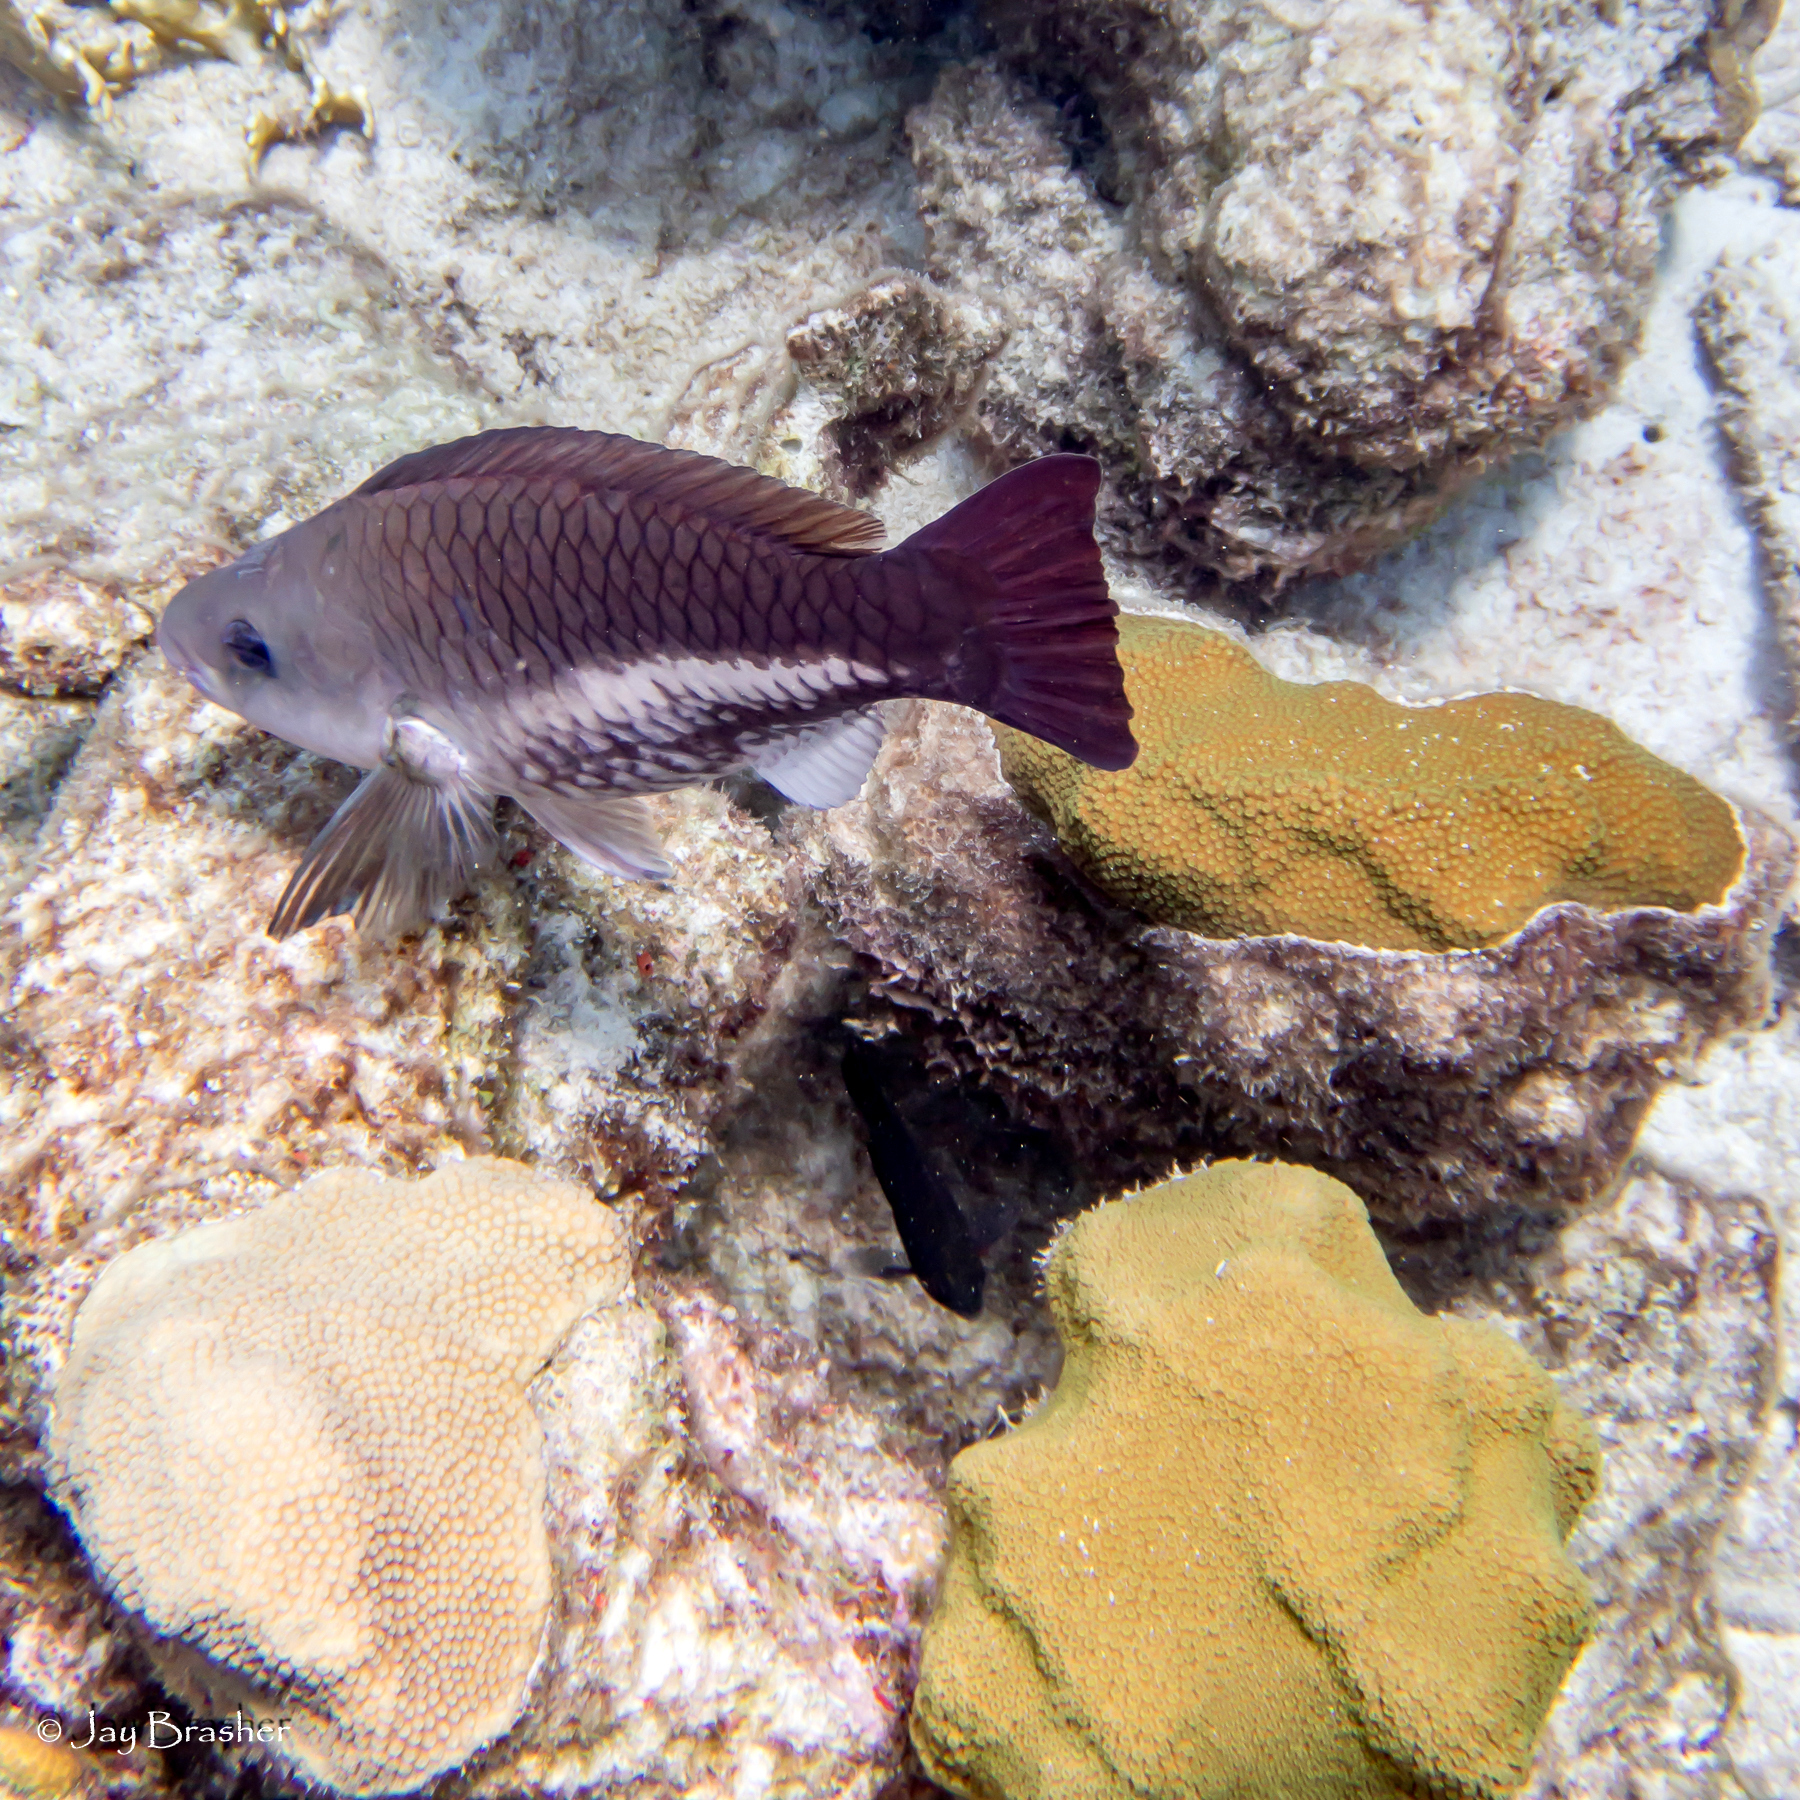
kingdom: Animalia
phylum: Chordata
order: Perciformes
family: Scaridae
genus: Scarus
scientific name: Scarus vetula
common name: Queen parrotfish
